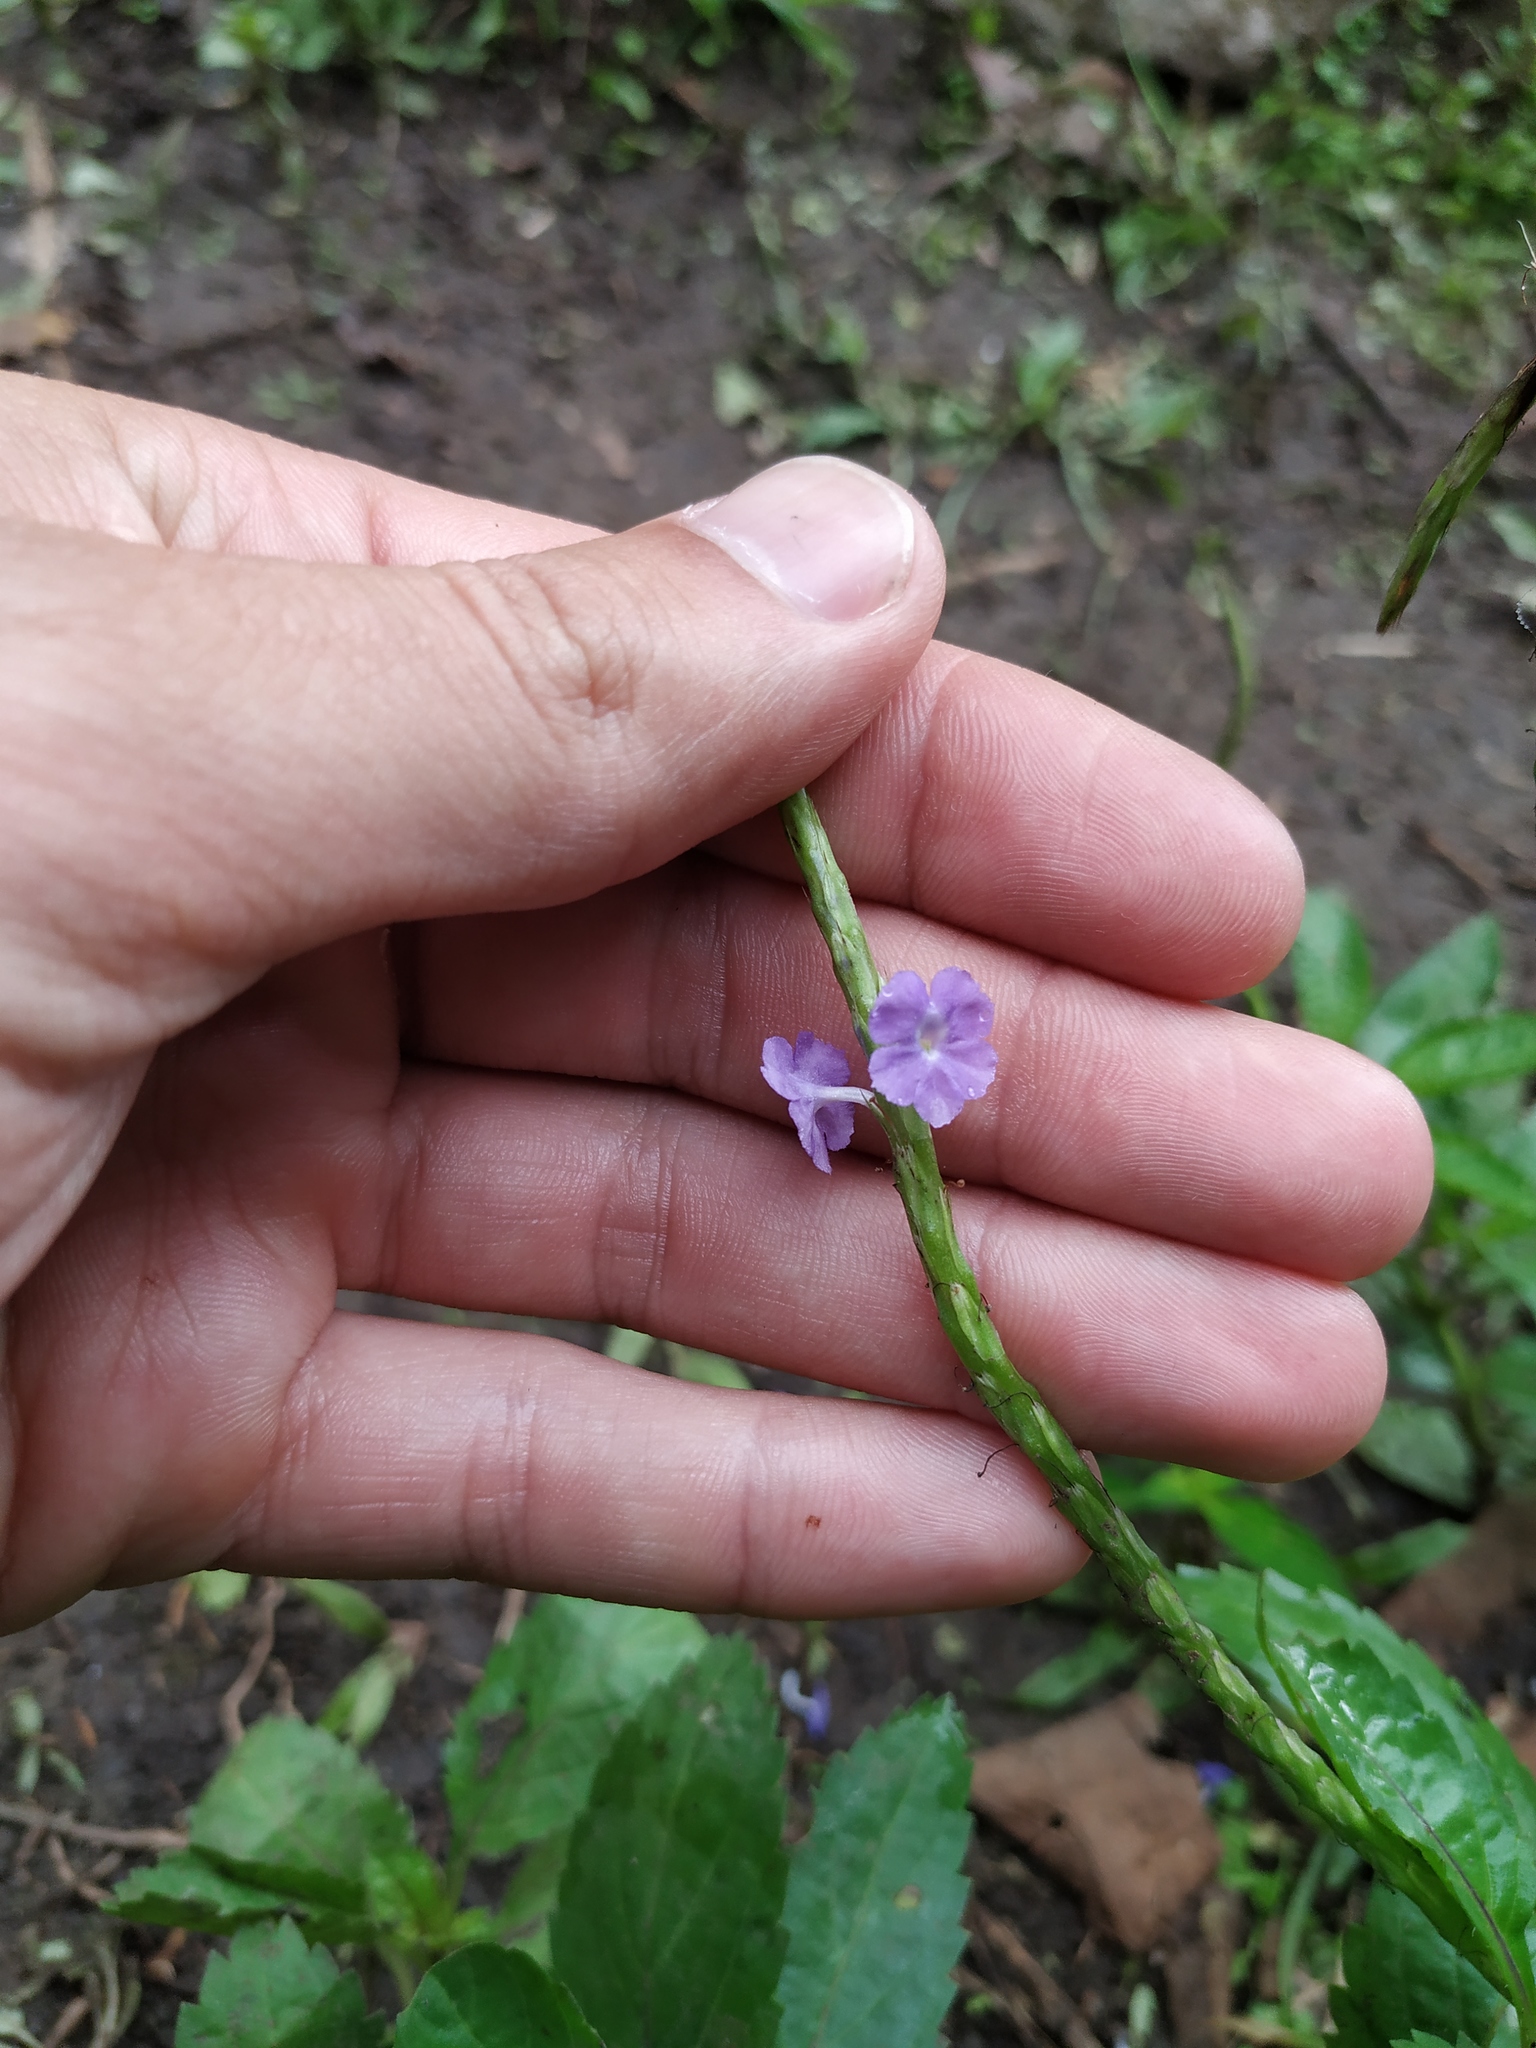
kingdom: Plantae
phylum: Tracheophyta
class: Magnoliopsida
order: Lamiales
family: Verbenaceae
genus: Stachytarpheta
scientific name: Stachytarpheta jamaicensis
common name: Light-blue snakeweed
